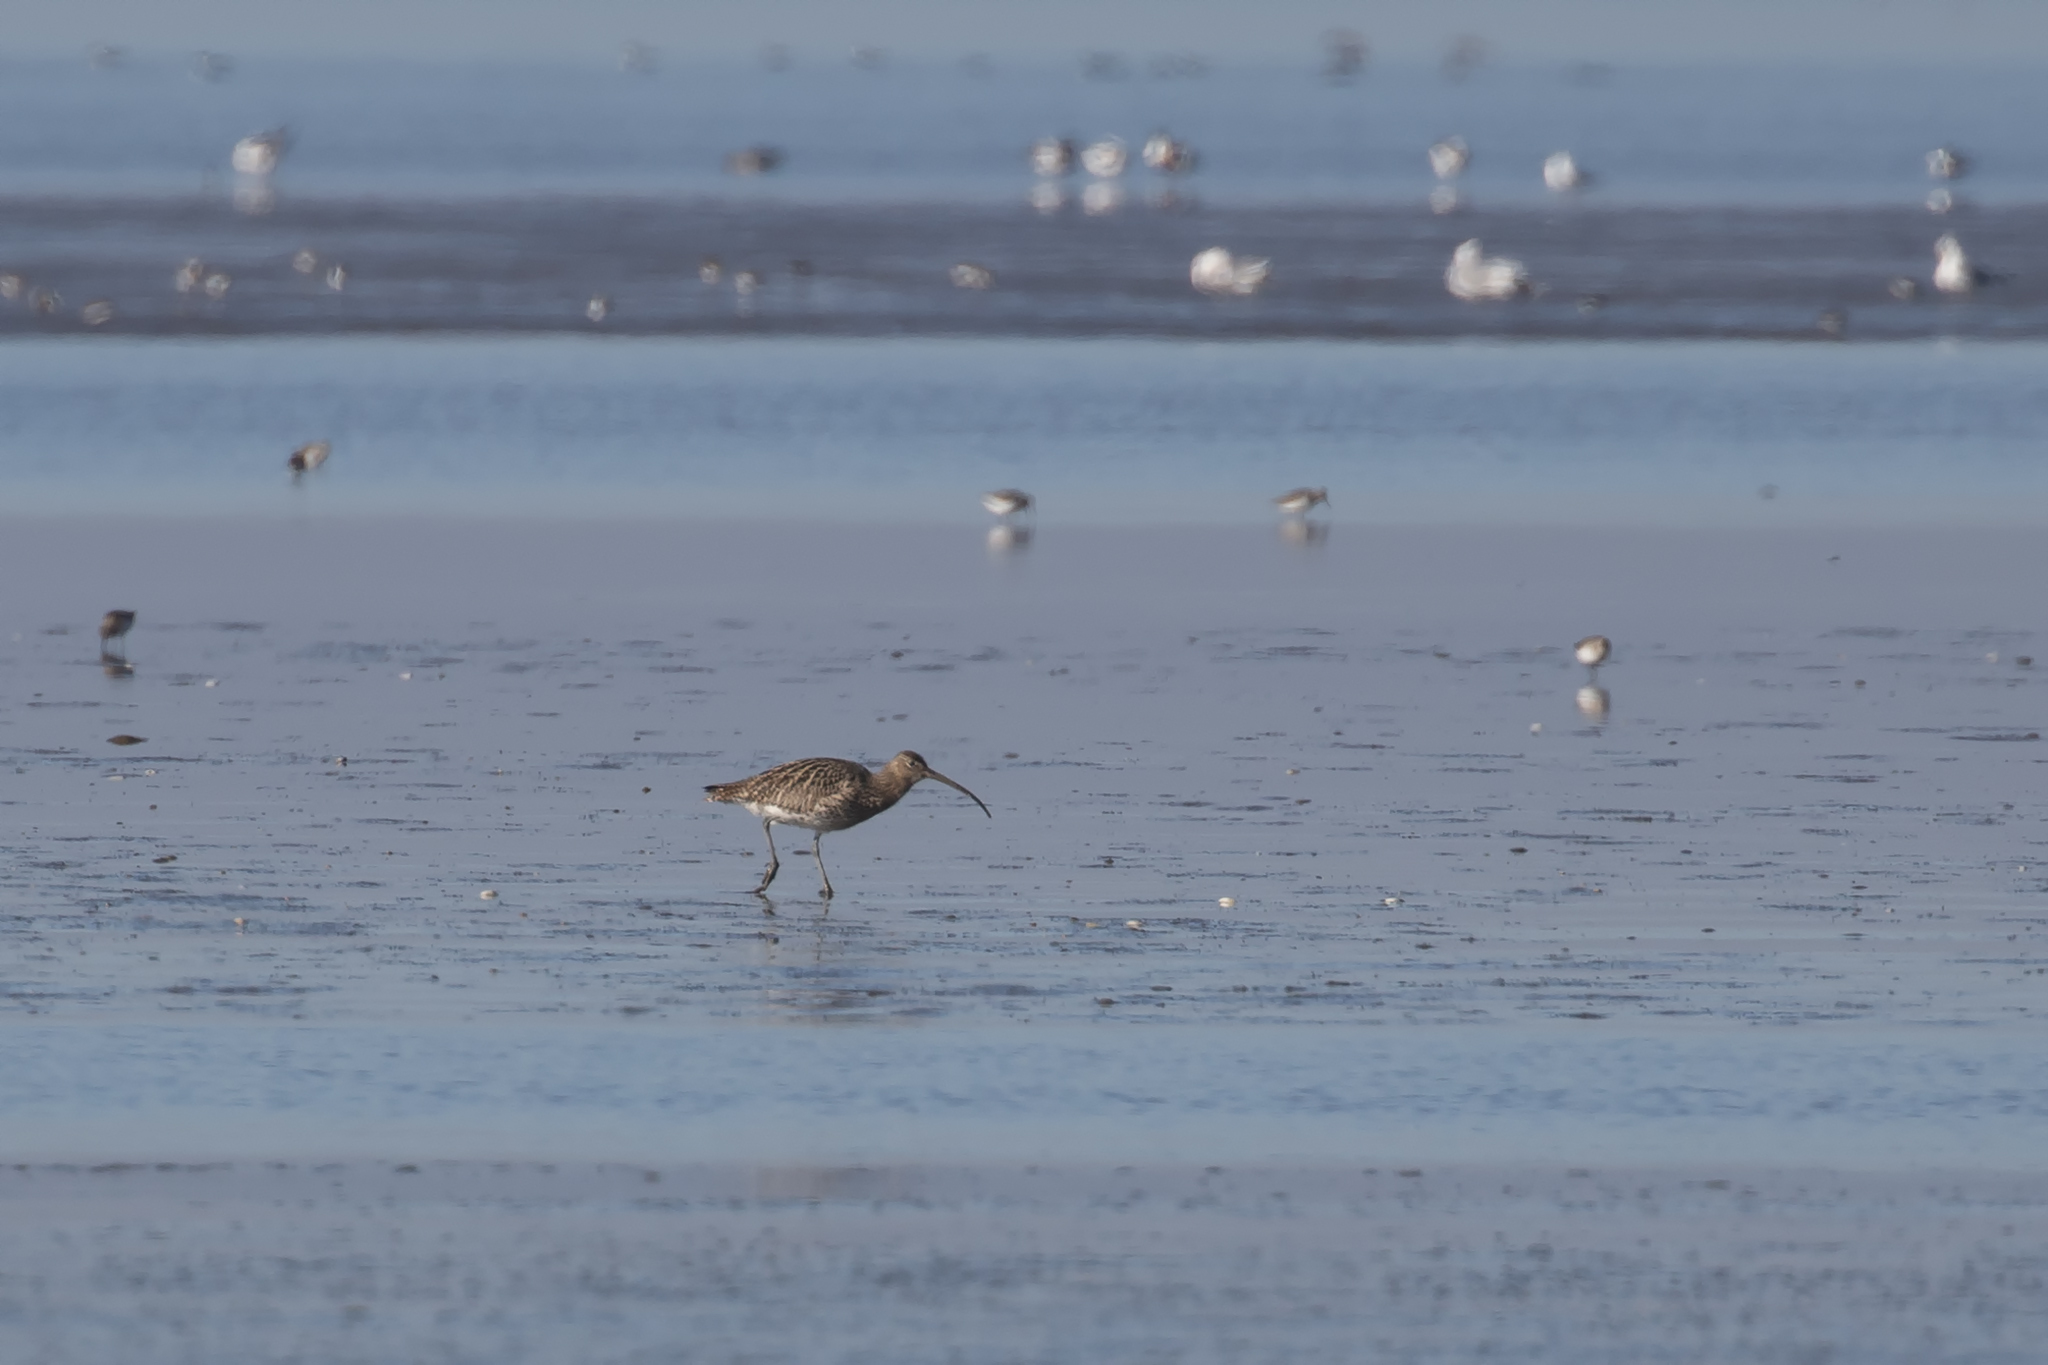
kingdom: Animalia
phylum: Chordata
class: Aves
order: Charadriiformes
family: Scolopacidae
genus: Numenius
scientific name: Numenius arquata
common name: Eurasian curlew
